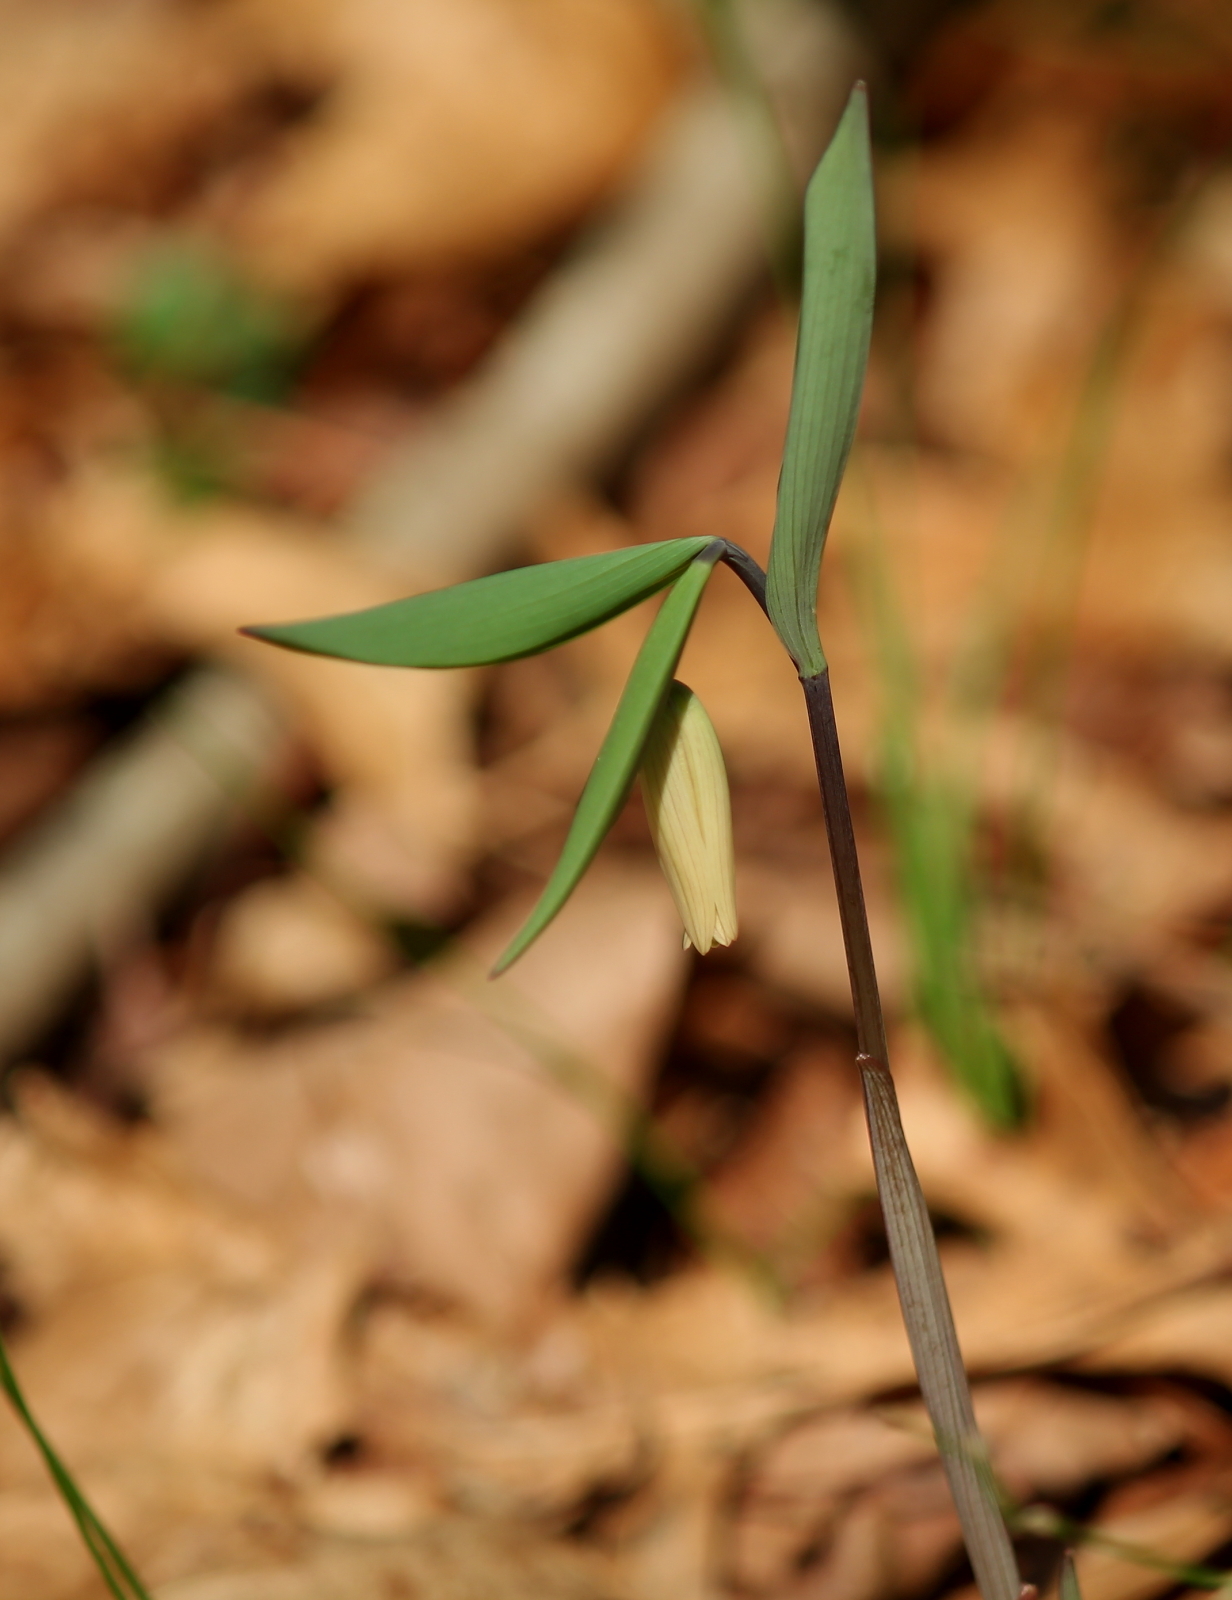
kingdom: Plantae
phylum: Tracheophyta
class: Liliopsida
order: Liliales
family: Colchicaceae
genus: Uvularia
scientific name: Uvularia sessilifolia
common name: Straw-lily
